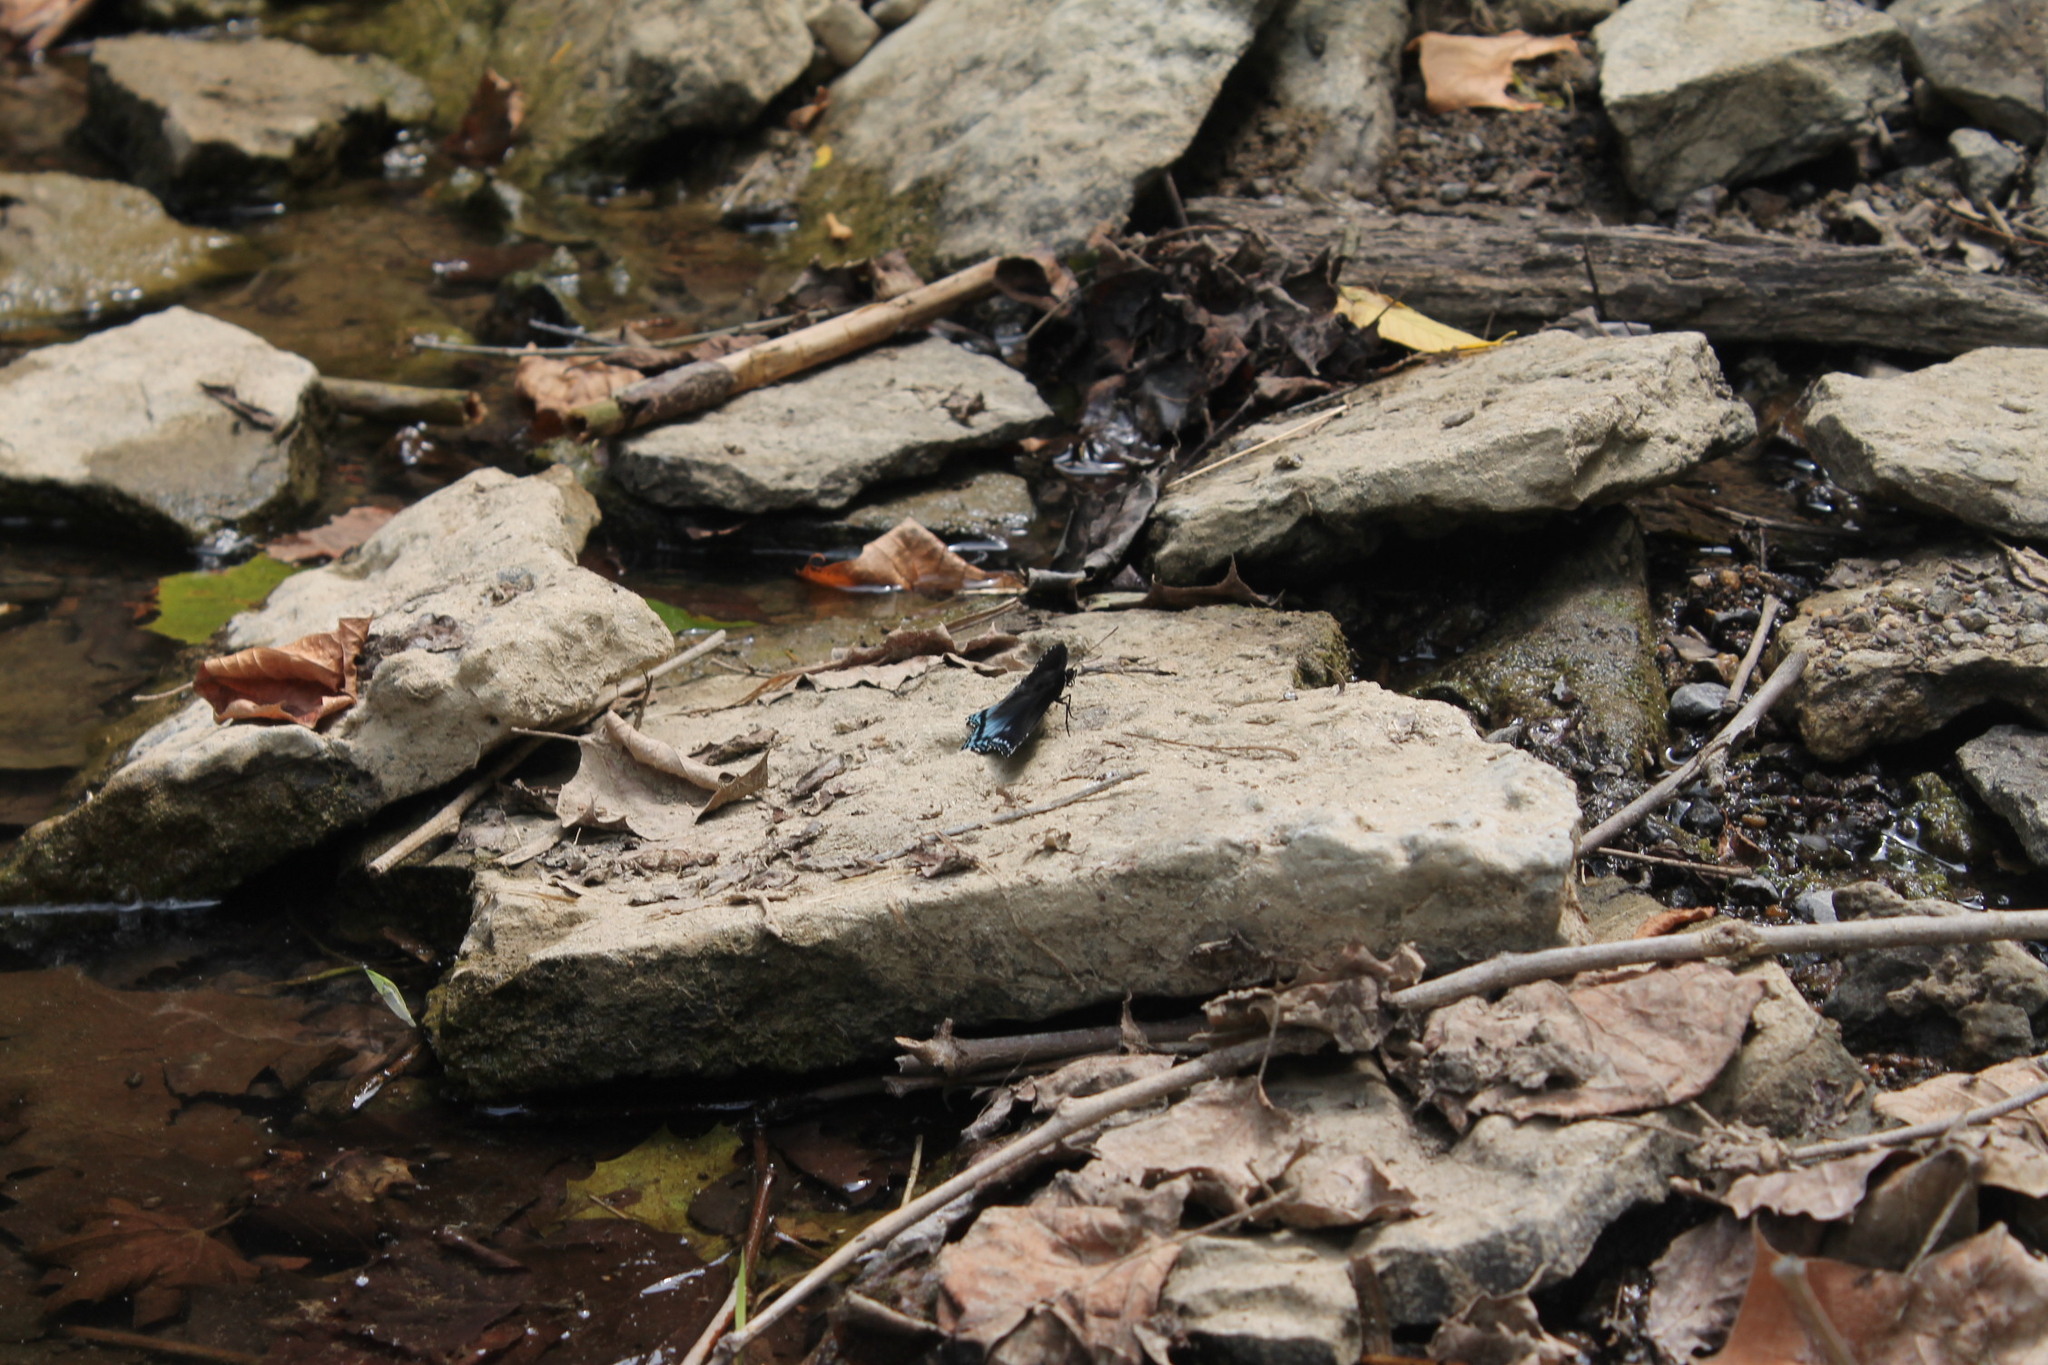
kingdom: Animalia
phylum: Arthropoda
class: Insecta
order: Lepidoptera
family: Nymphalidae
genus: Limenitis
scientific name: Limenitis astyanax
